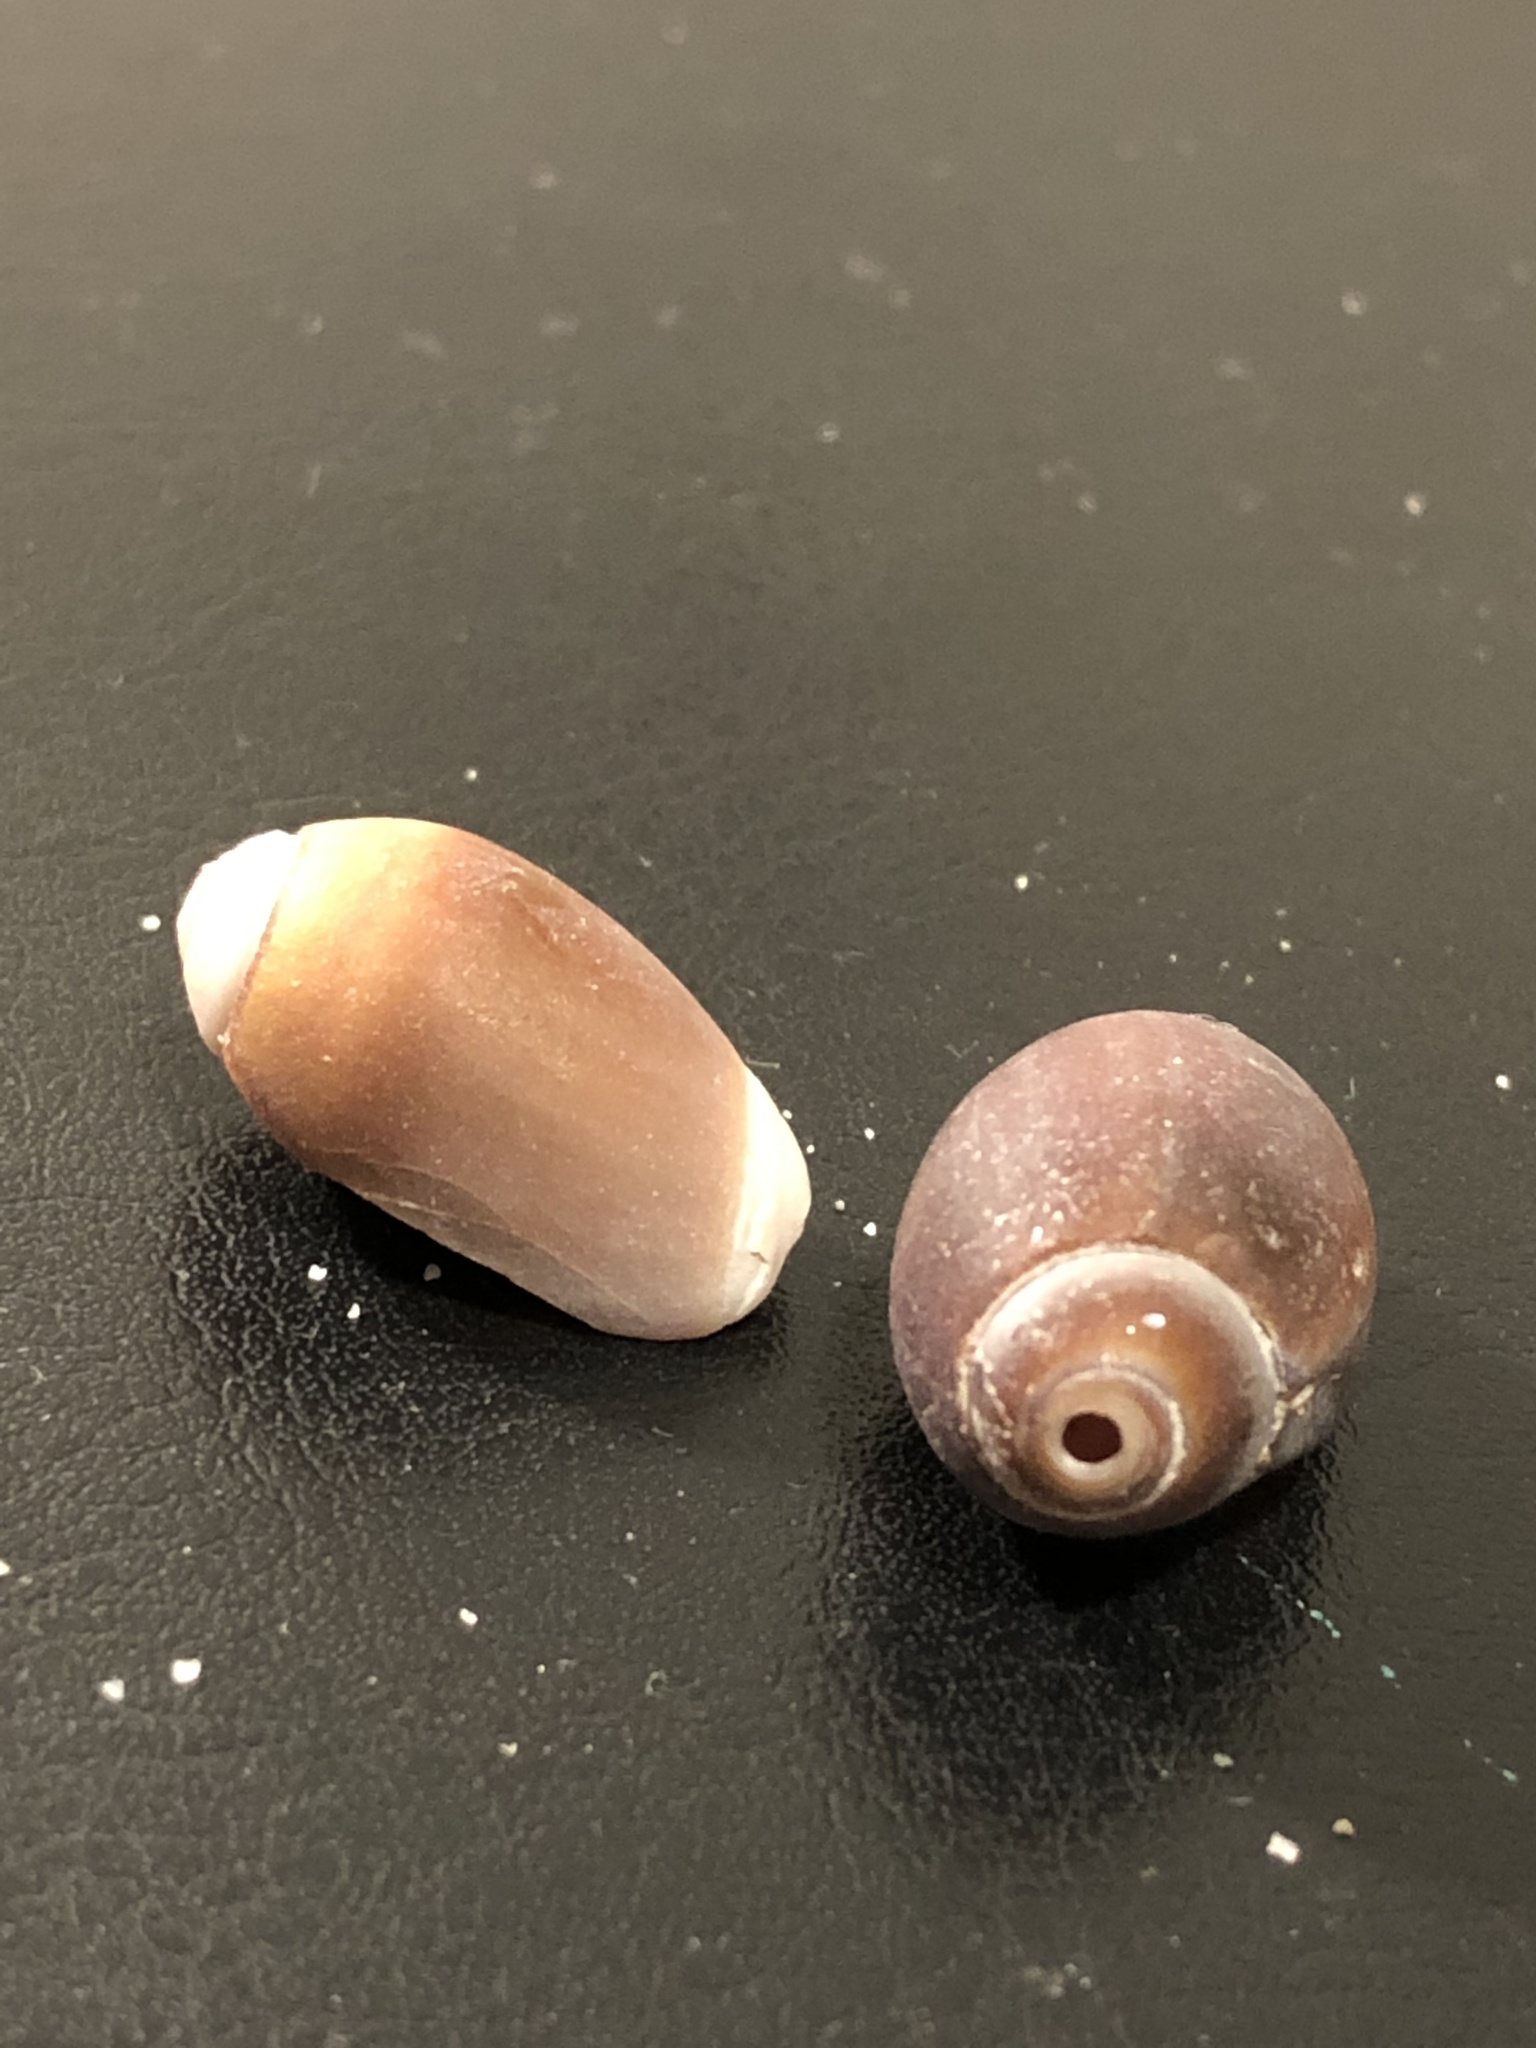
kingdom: Animalia
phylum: Mollusca
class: Gastropoda
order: Neogastropoda
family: Olividae
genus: Callianax
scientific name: Callianax biplicata
